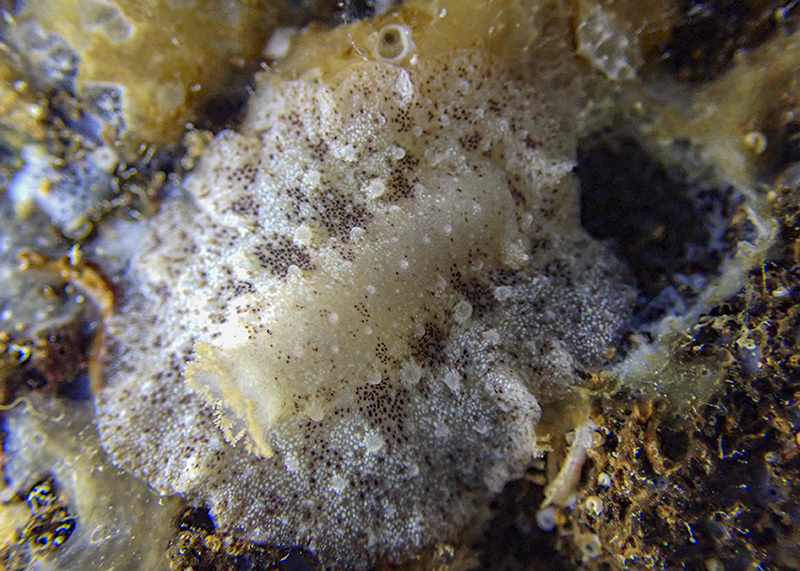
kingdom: Animalia
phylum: Mollusca
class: Gastropoda
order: Nudibranchia
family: Discodorididae
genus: Paradoris
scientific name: Paradoris indecora
